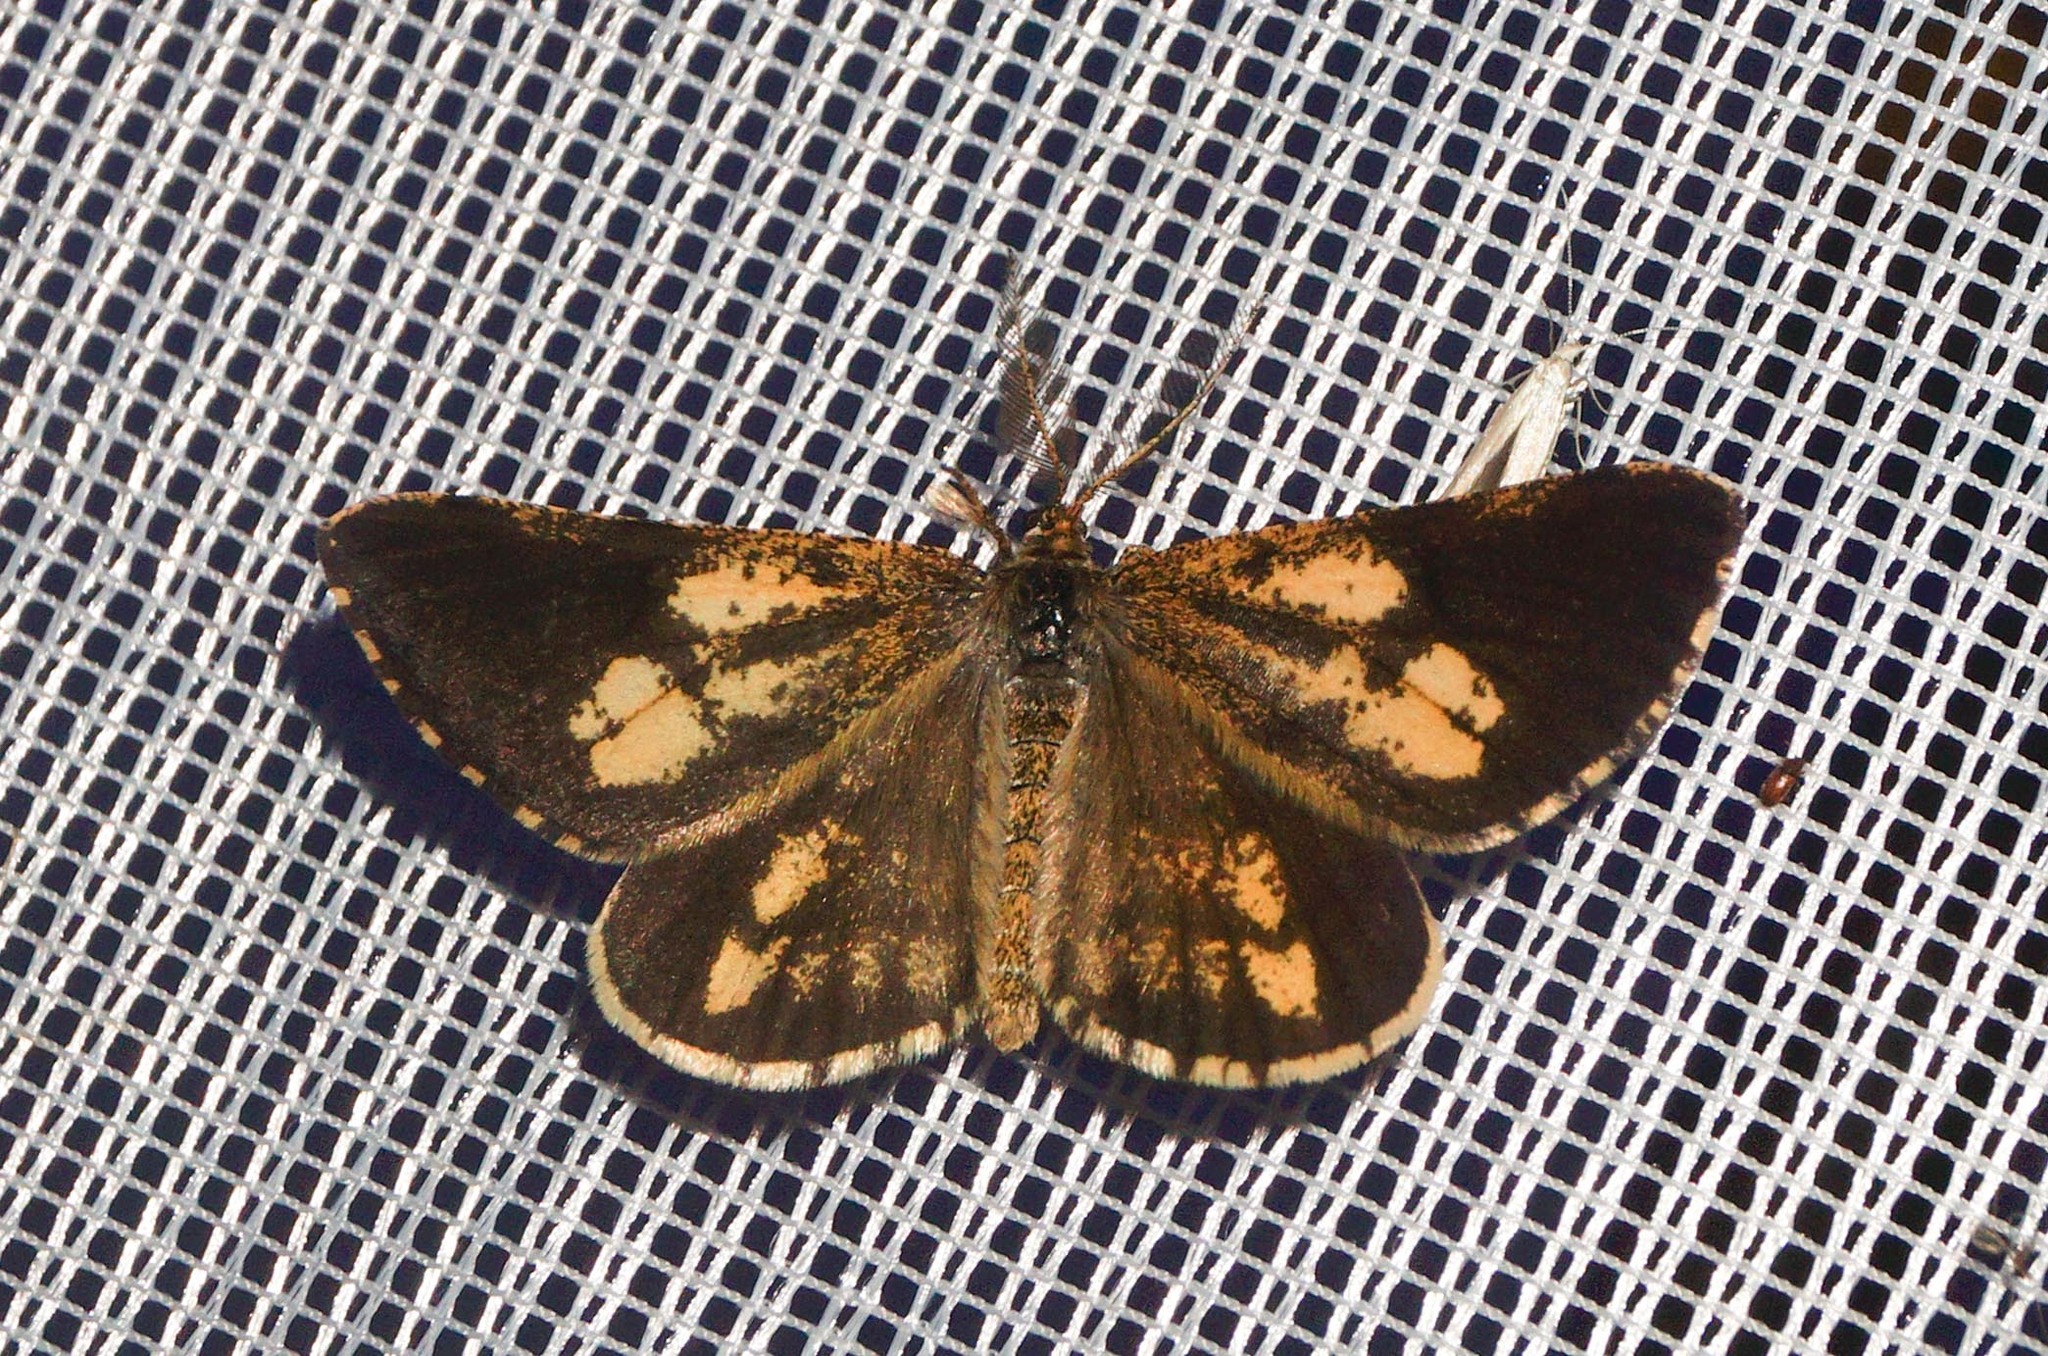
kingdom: Animalia
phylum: Arthropoda
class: Insecta
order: Lepidoptera
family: Geometridae
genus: Bupalus
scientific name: Bupalus piniaria
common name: Bordered white
